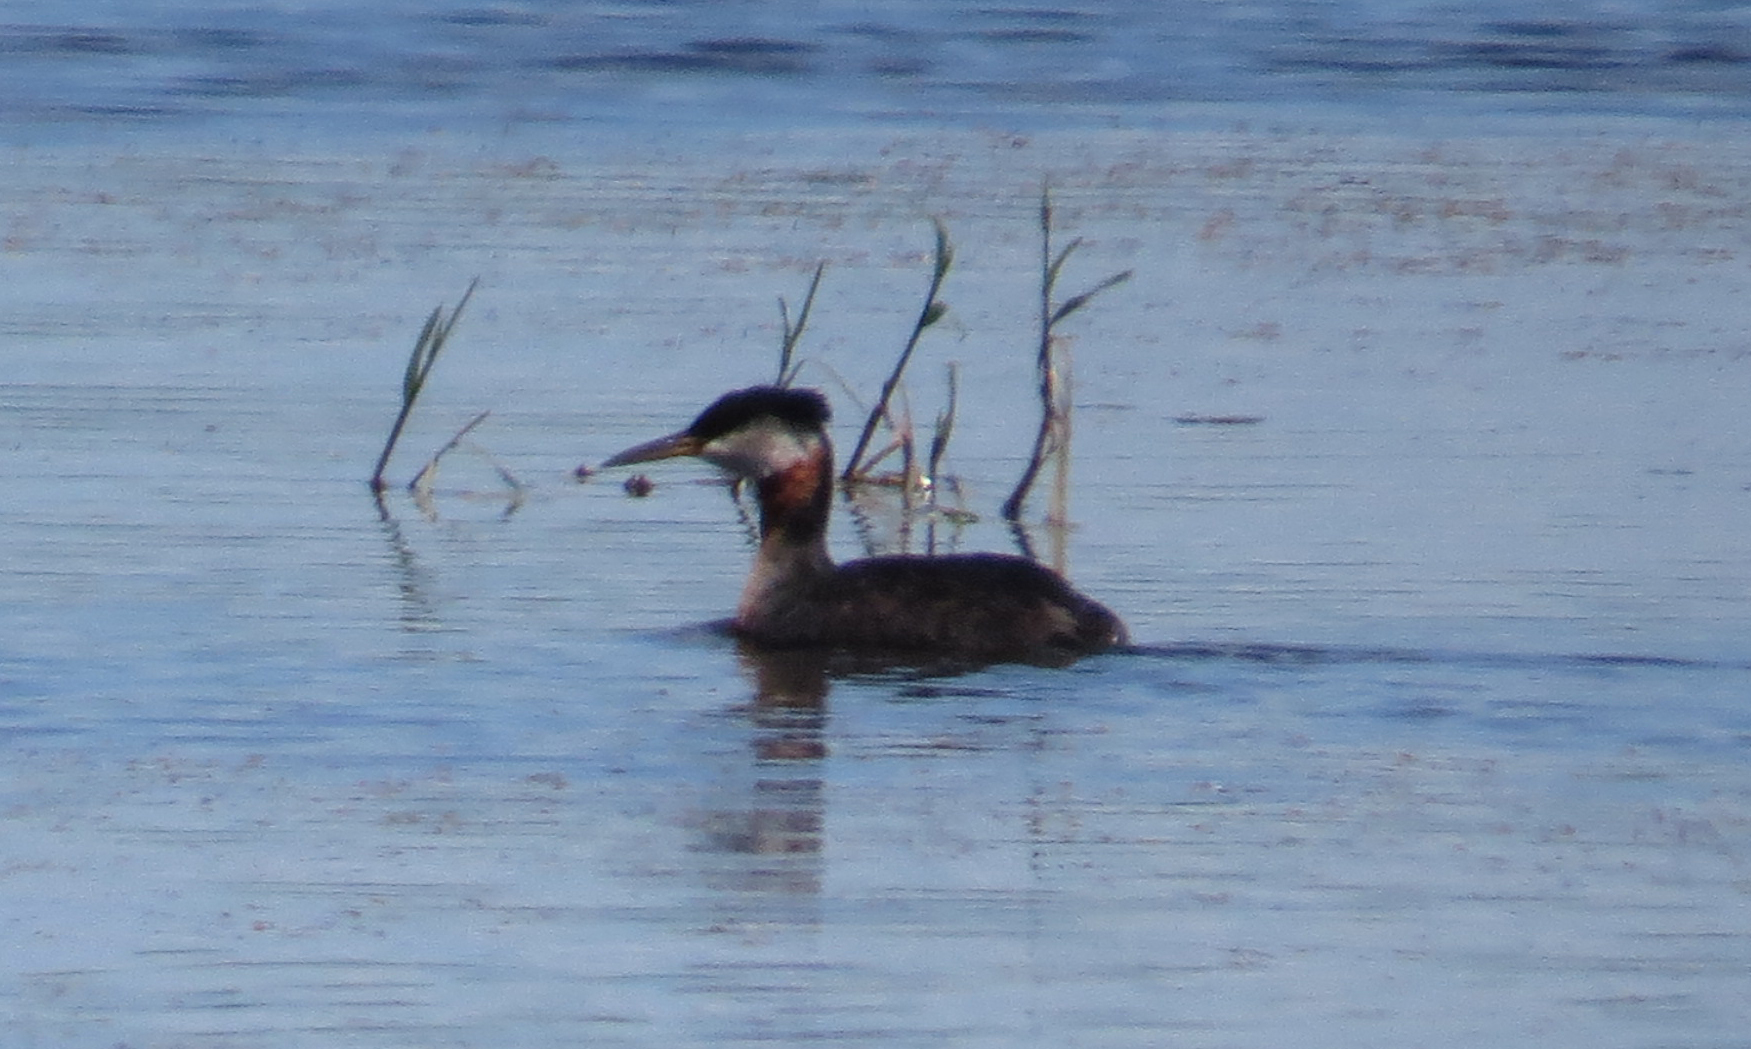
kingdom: Animalia
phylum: Chordata
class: Aves
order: Podicipediformes
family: Podicipedidae
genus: Podiceps
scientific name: Podiceps grisegena
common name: Red-necked grebe
